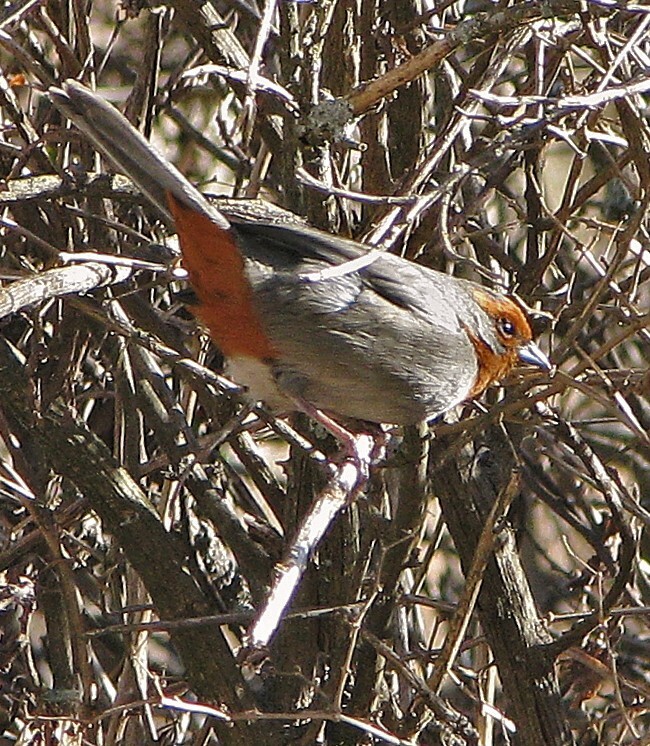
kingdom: Animalia
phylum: Chordata
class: Aves
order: Passeriformes
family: Thraupidae
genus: Poospiza
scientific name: Poospiza baeri
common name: Tucuman mountain-finch
